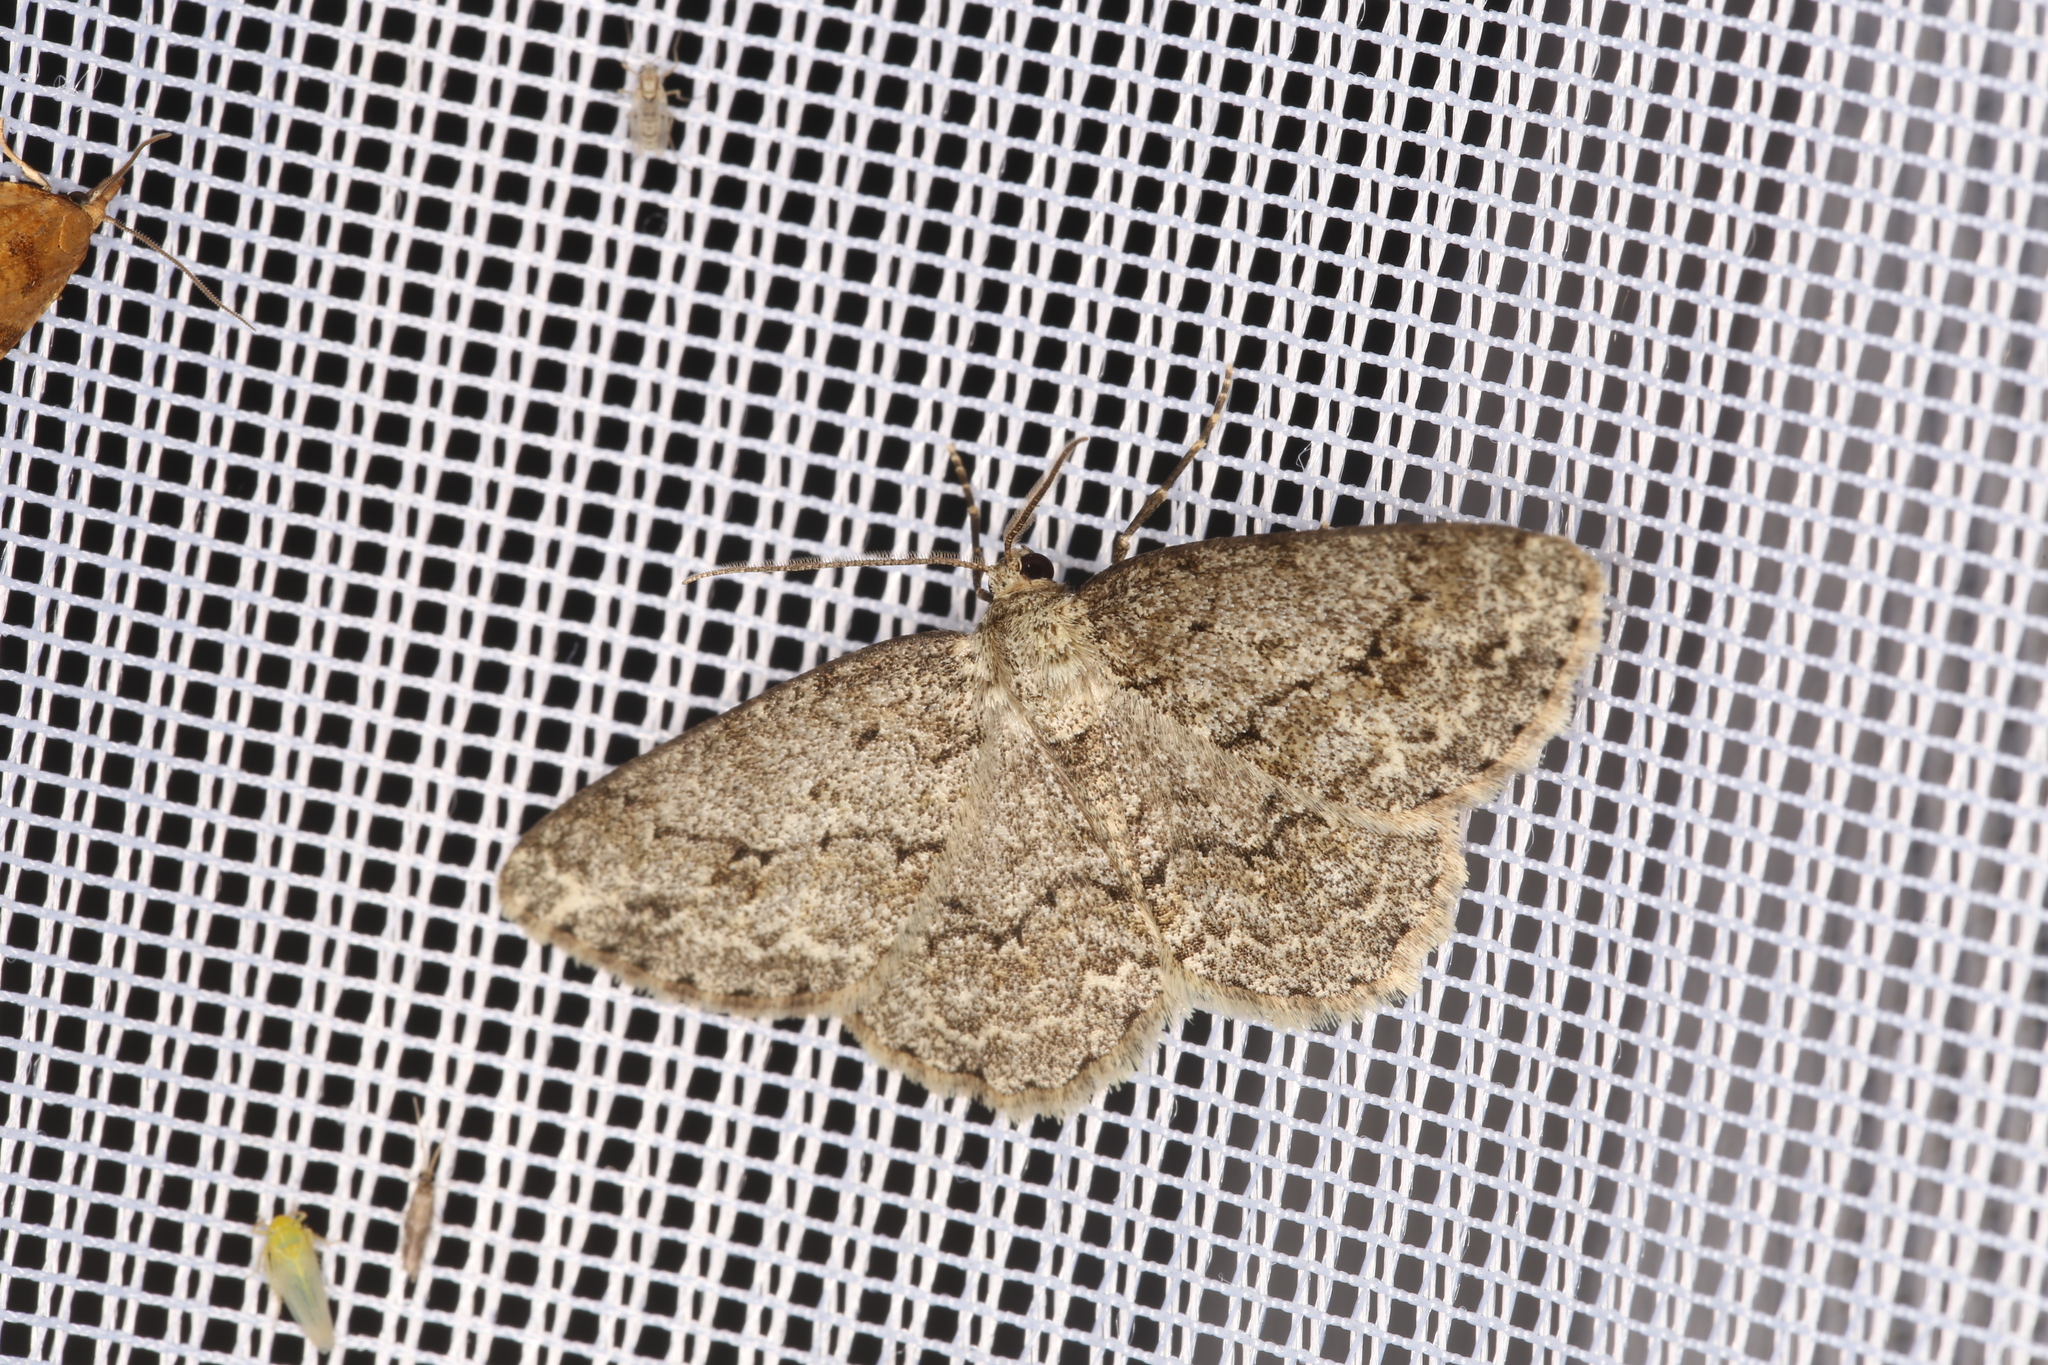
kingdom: Animalia
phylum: Arthropoda
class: Insecta
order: Lepidoptera
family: Geometridae
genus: Ectropis
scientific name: Ectropis crepuscularia
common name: Engrailed
